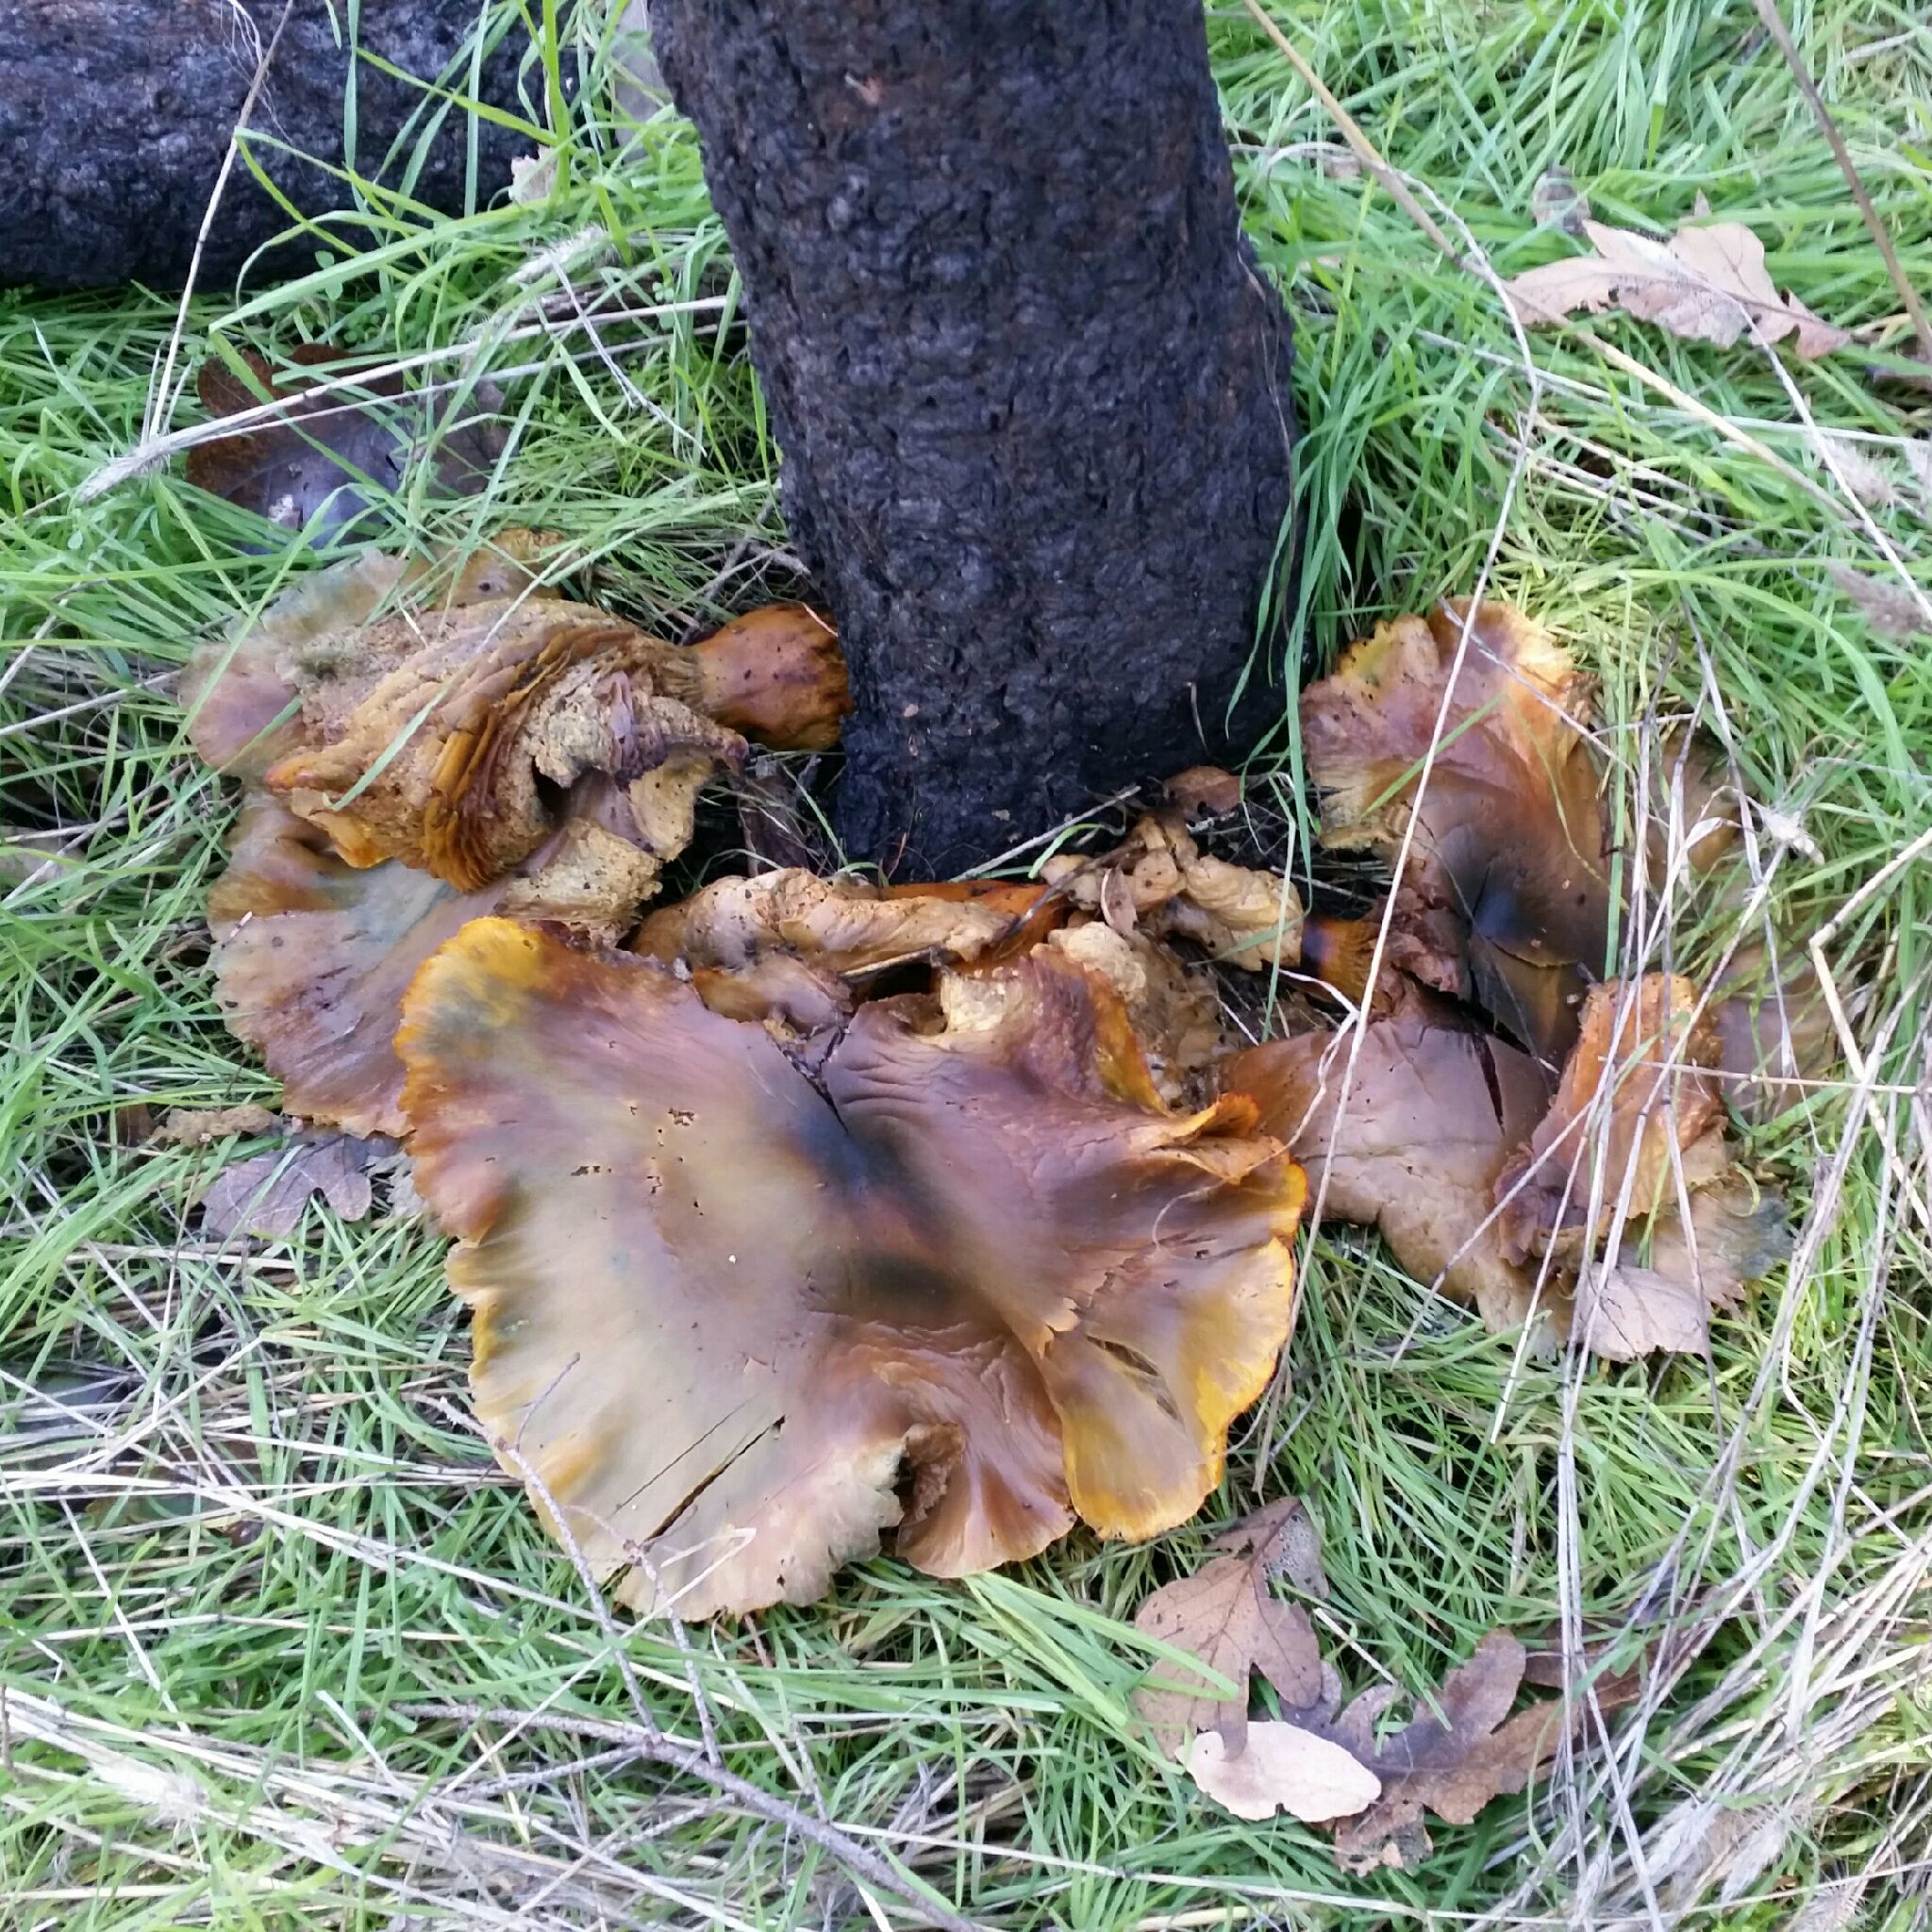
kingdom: Fungi
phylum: Basidiomycota
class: Agaricomycetes
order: Agaricales
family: Omphalotaceae
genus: Omphalotus
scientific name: Omphalotus olivascens
